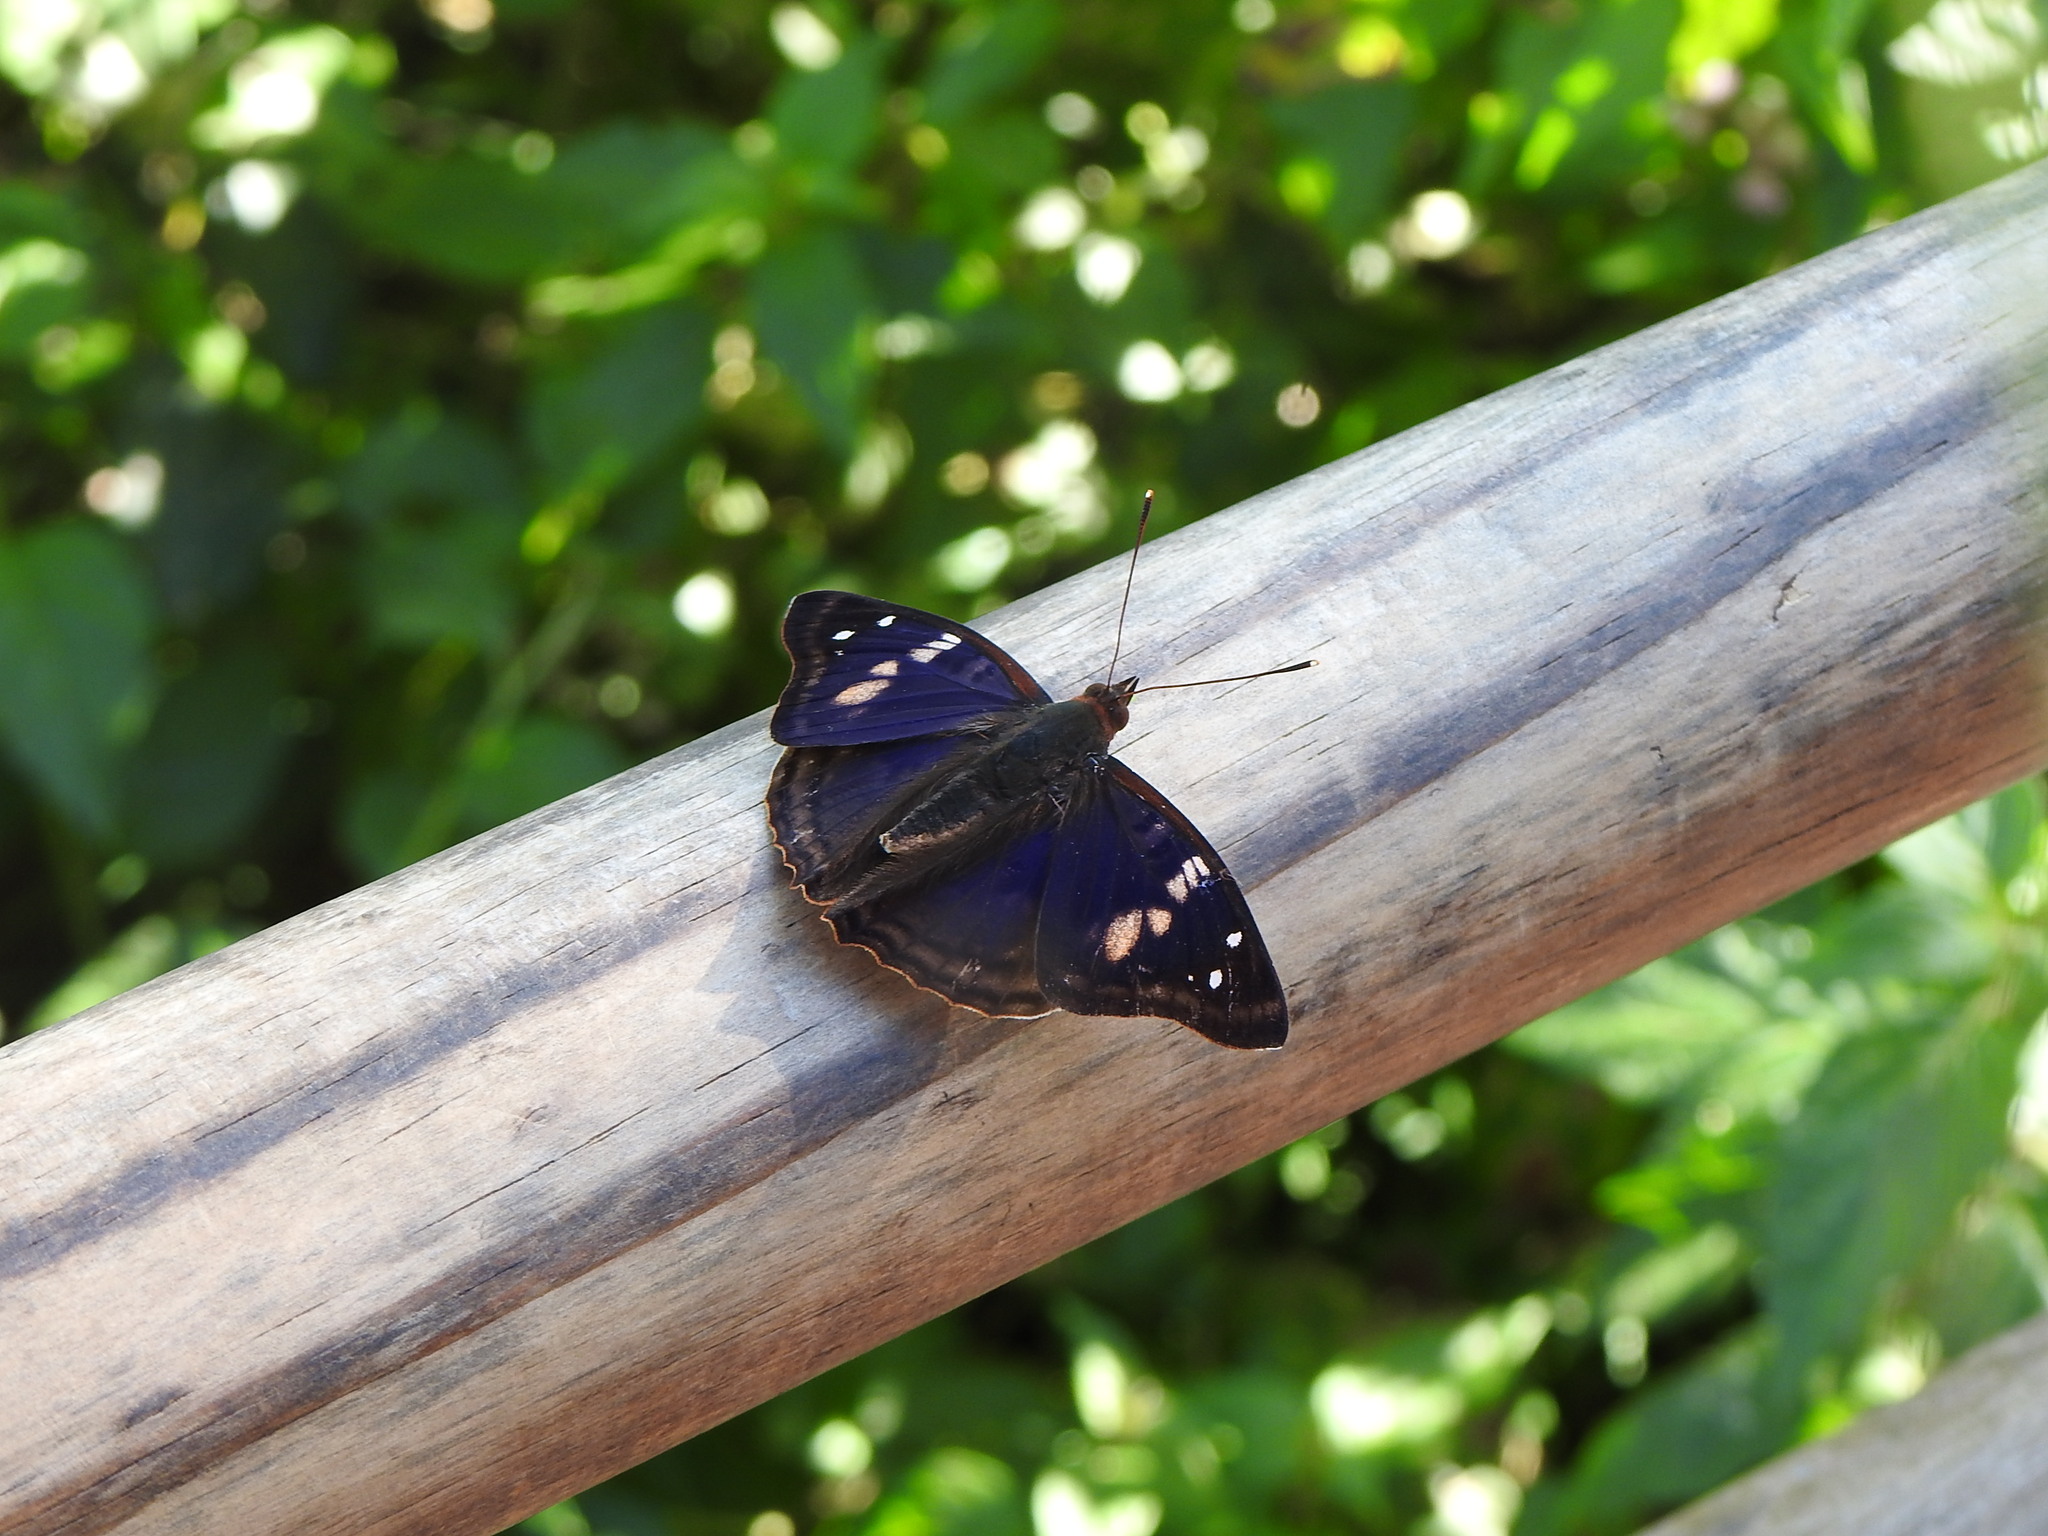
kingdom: Animalia
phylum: Arthropoda
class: Insecta
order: Lepidoptera
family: Nymphalidae
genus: Doxocopa
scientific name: Doxocopa agathina
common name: Agathina emperor
